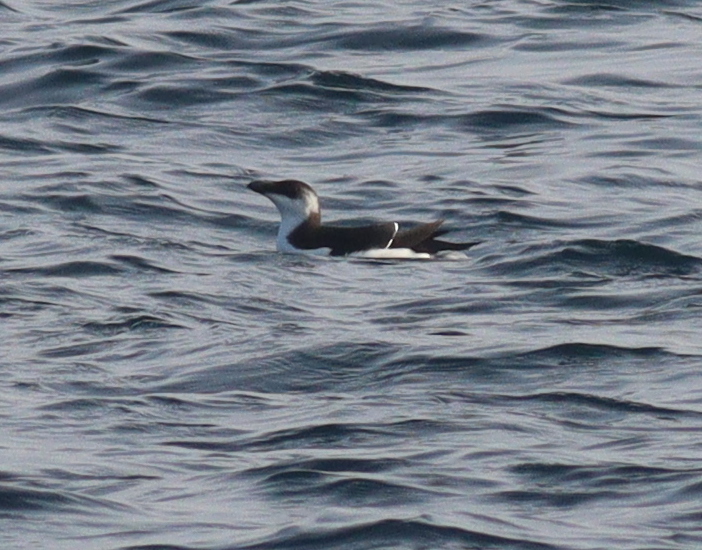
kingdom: Animalia
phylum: Chordata
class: Aves
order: Charadriiformes
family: Alcidae
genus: Alca
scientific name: Alca torda
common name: Razorbill
